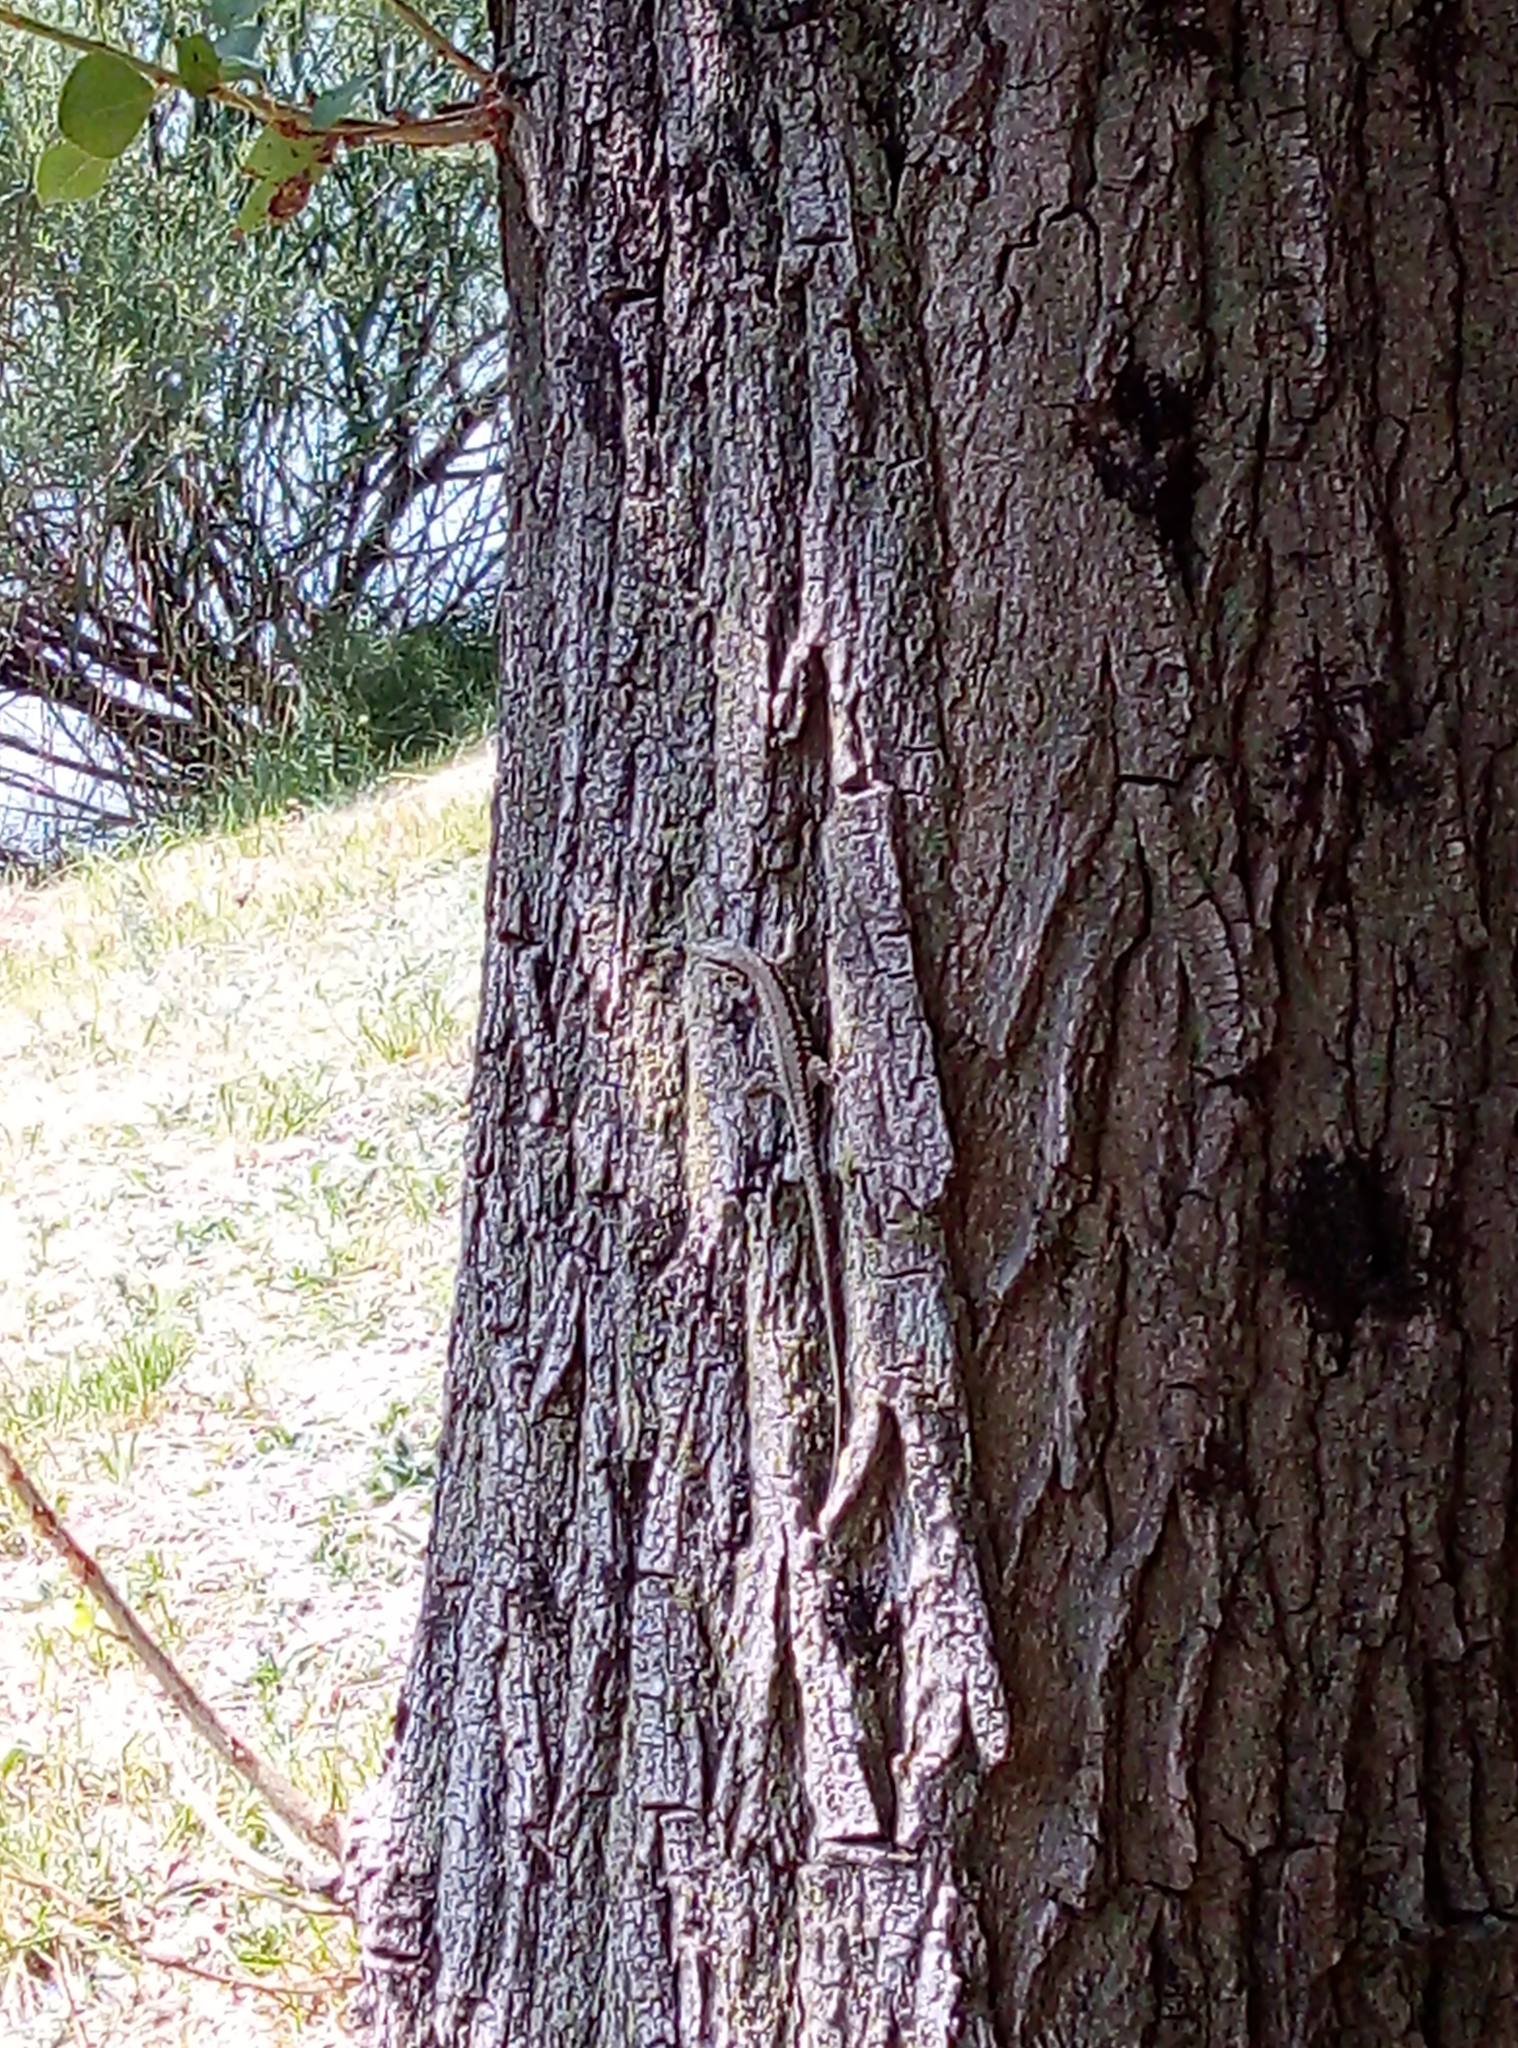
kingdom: Animalia
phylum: Chordata
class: Squamata
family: Lacertidae
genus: Podarcis
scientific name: Podarcis muralis
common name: Common wall lizard
